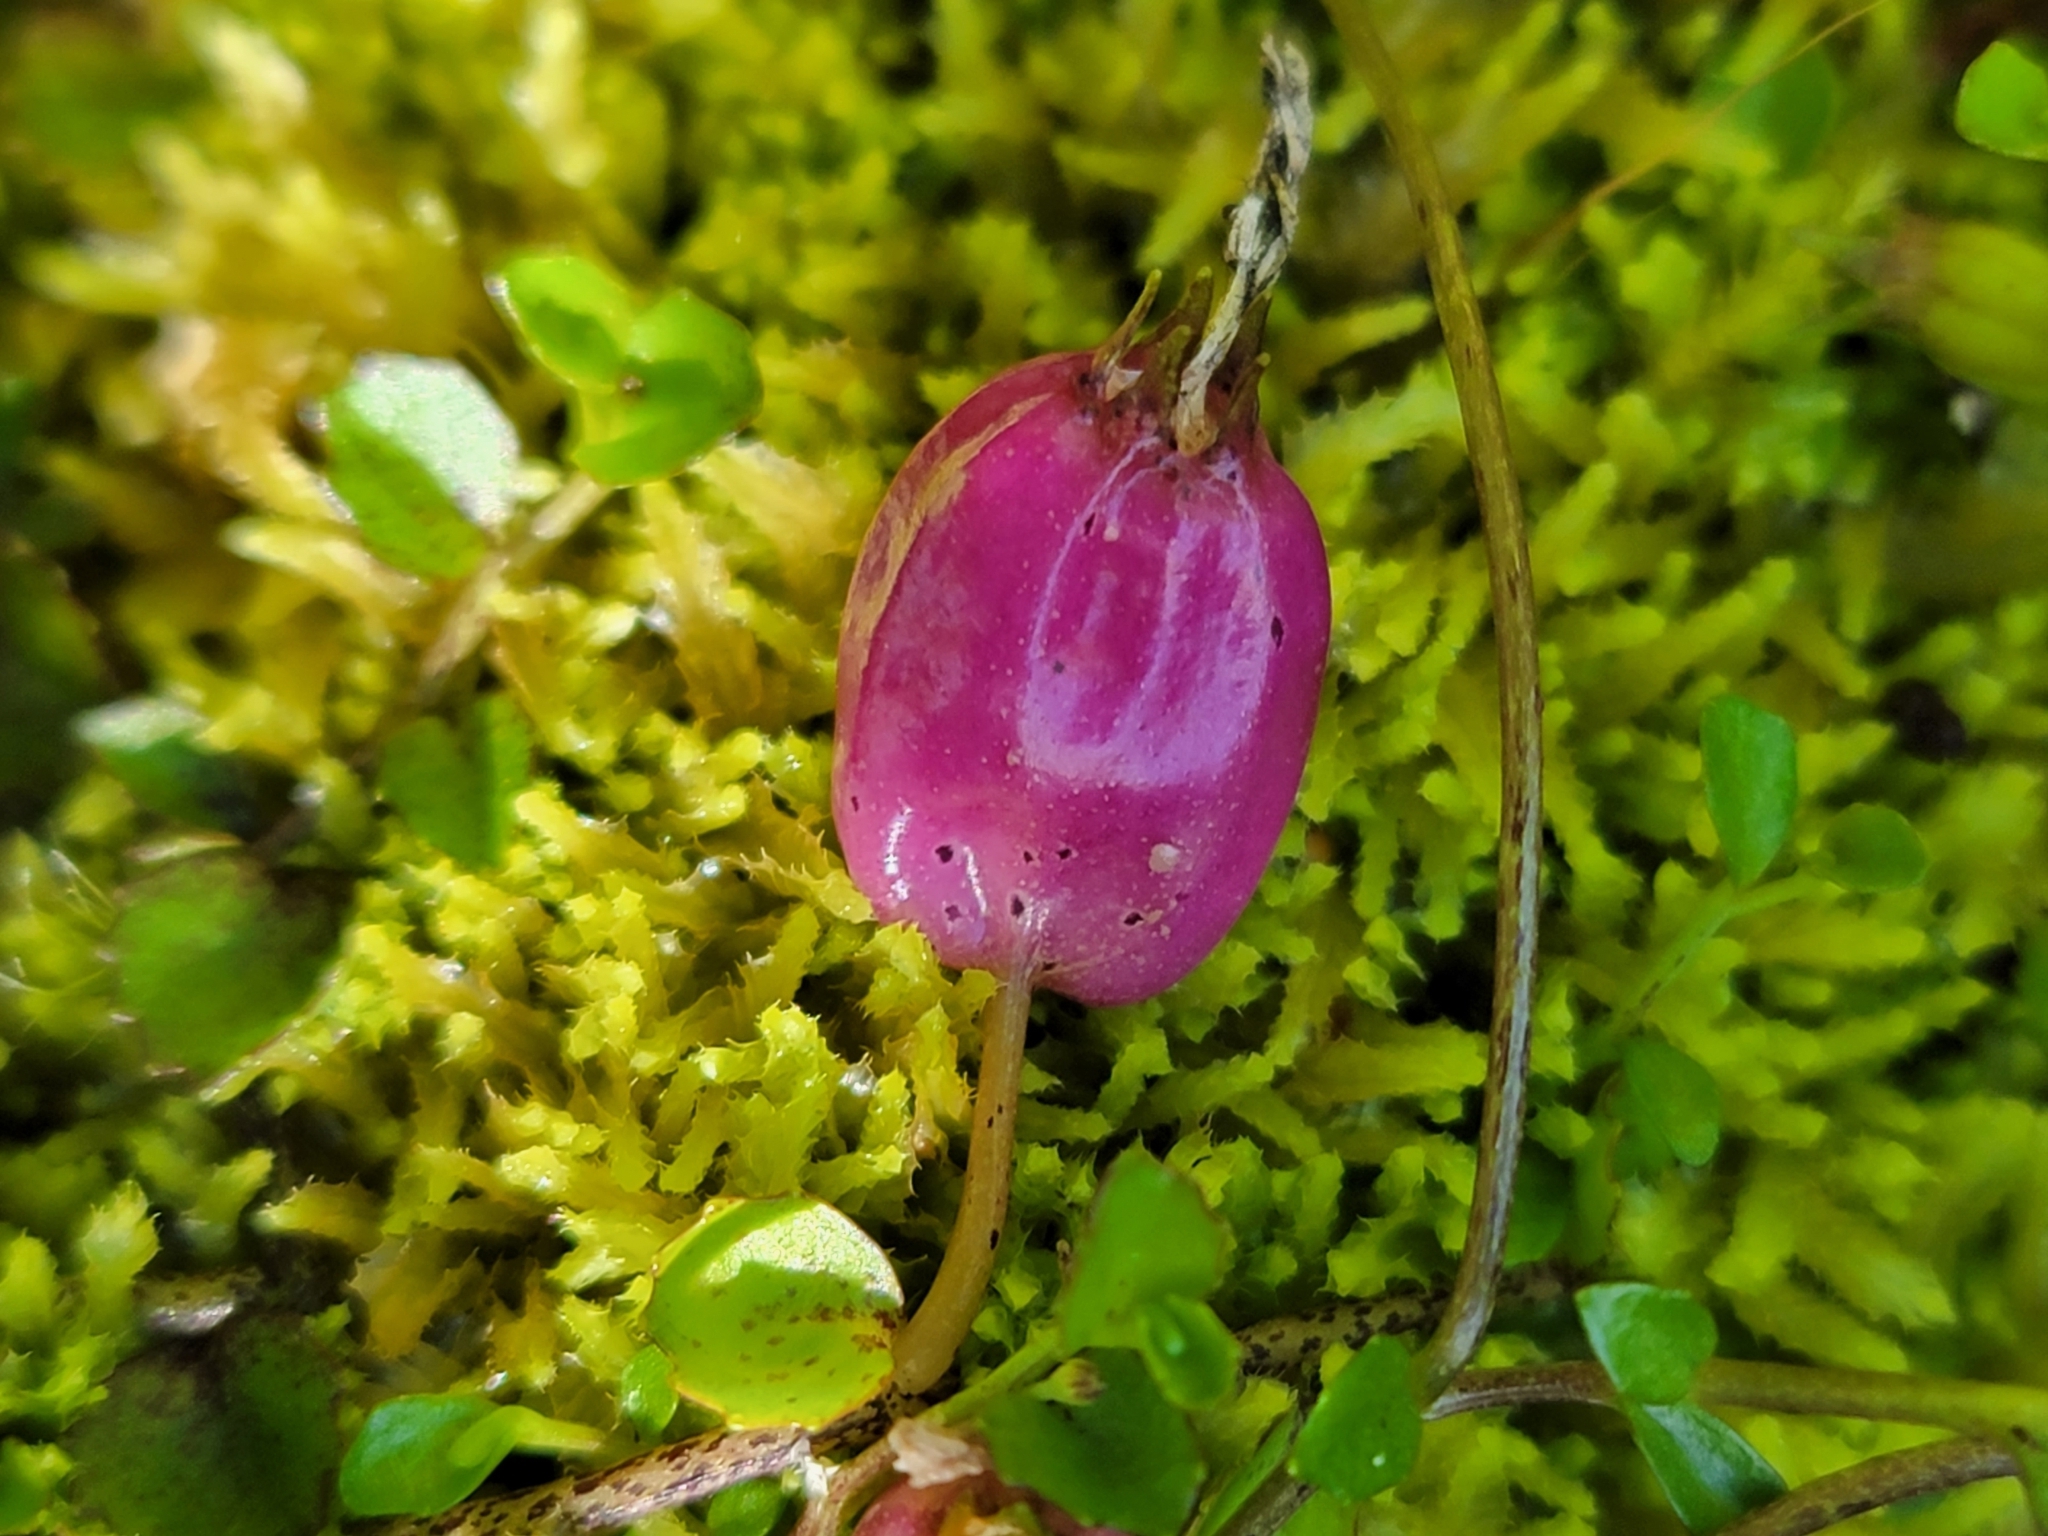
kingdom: Plantae
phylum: Tracheophyta
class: Magnoliopsida
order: Asterales
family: Campanulaceae
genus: Lobelia
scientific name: Lobelia angulata
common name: Lawn lobelia
